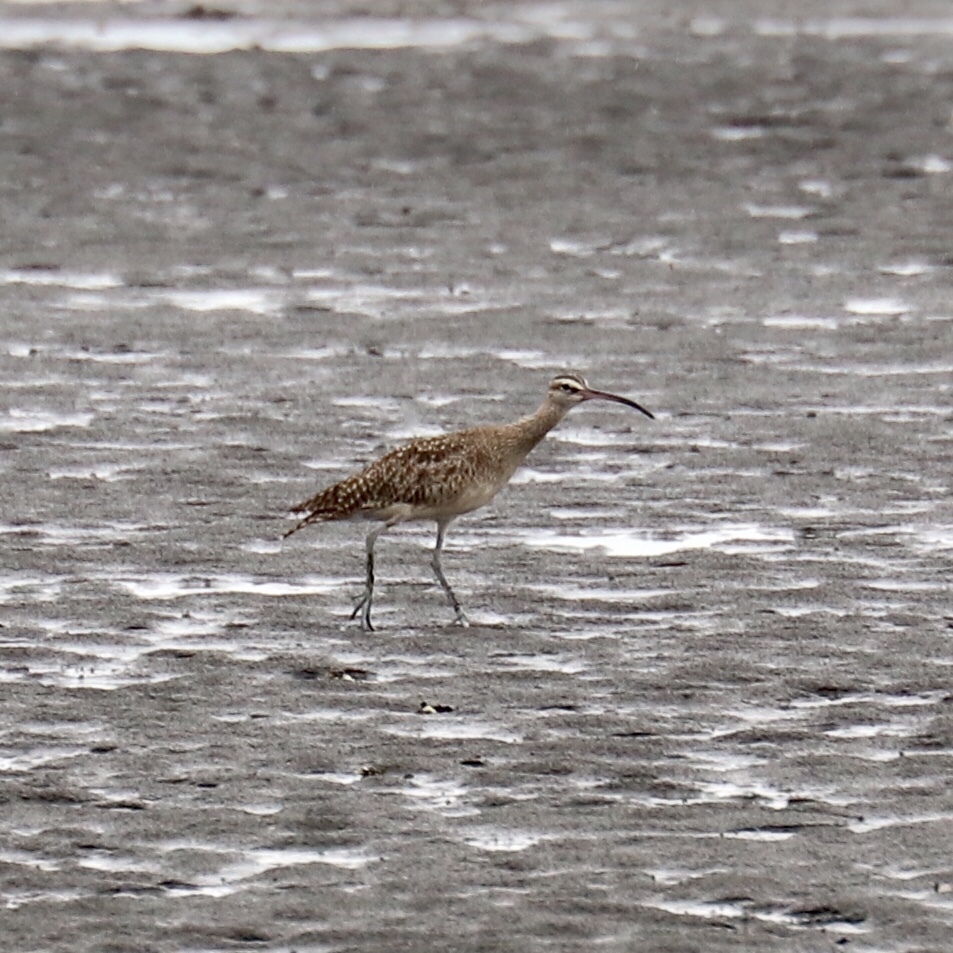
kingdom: Animalia
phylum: Chordata
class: Aves
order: Charadriiformes
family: Scolopacidae
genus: Numenius
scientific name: Numenius phaeopus
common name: Whimbrel
